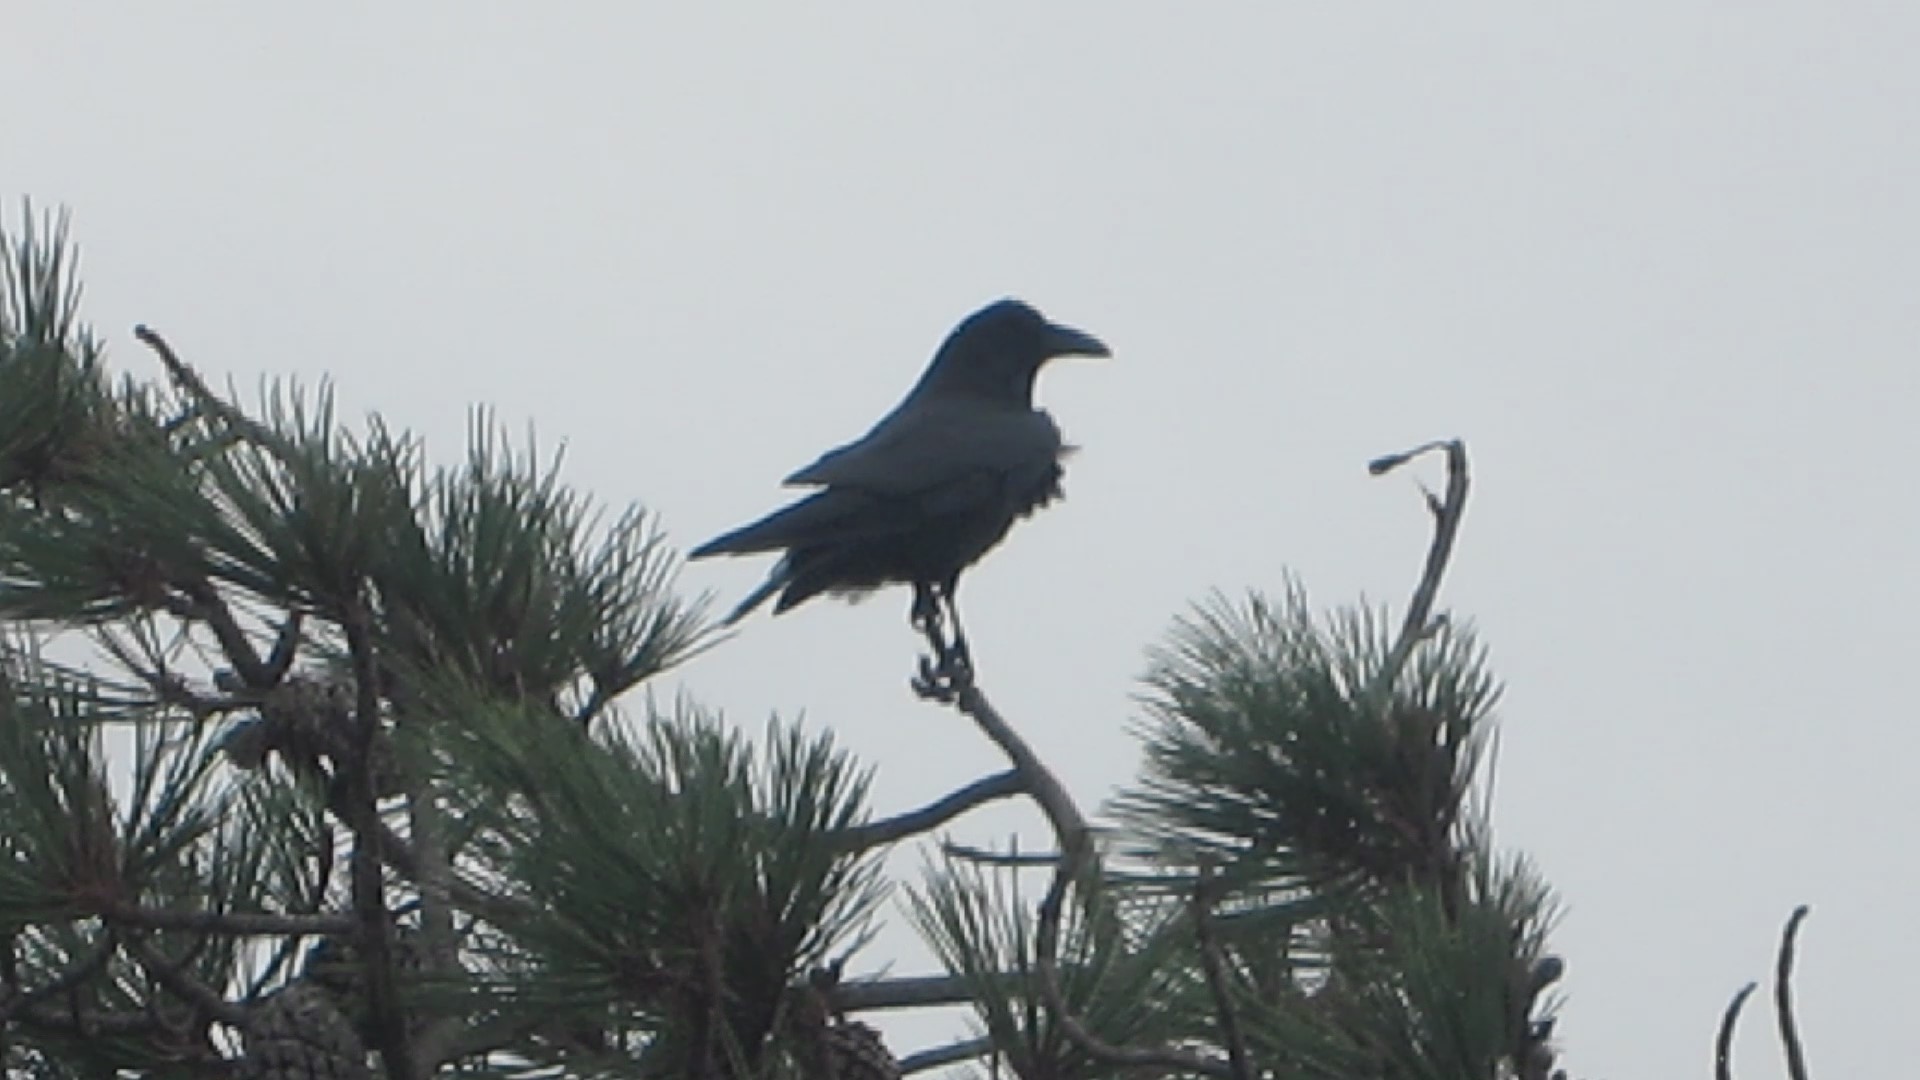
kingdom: Animalia
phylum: Chordata
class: Aves
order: Passeriformes
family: Corvidae
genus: Corvus
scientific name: Corvus corax
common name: Common raven
